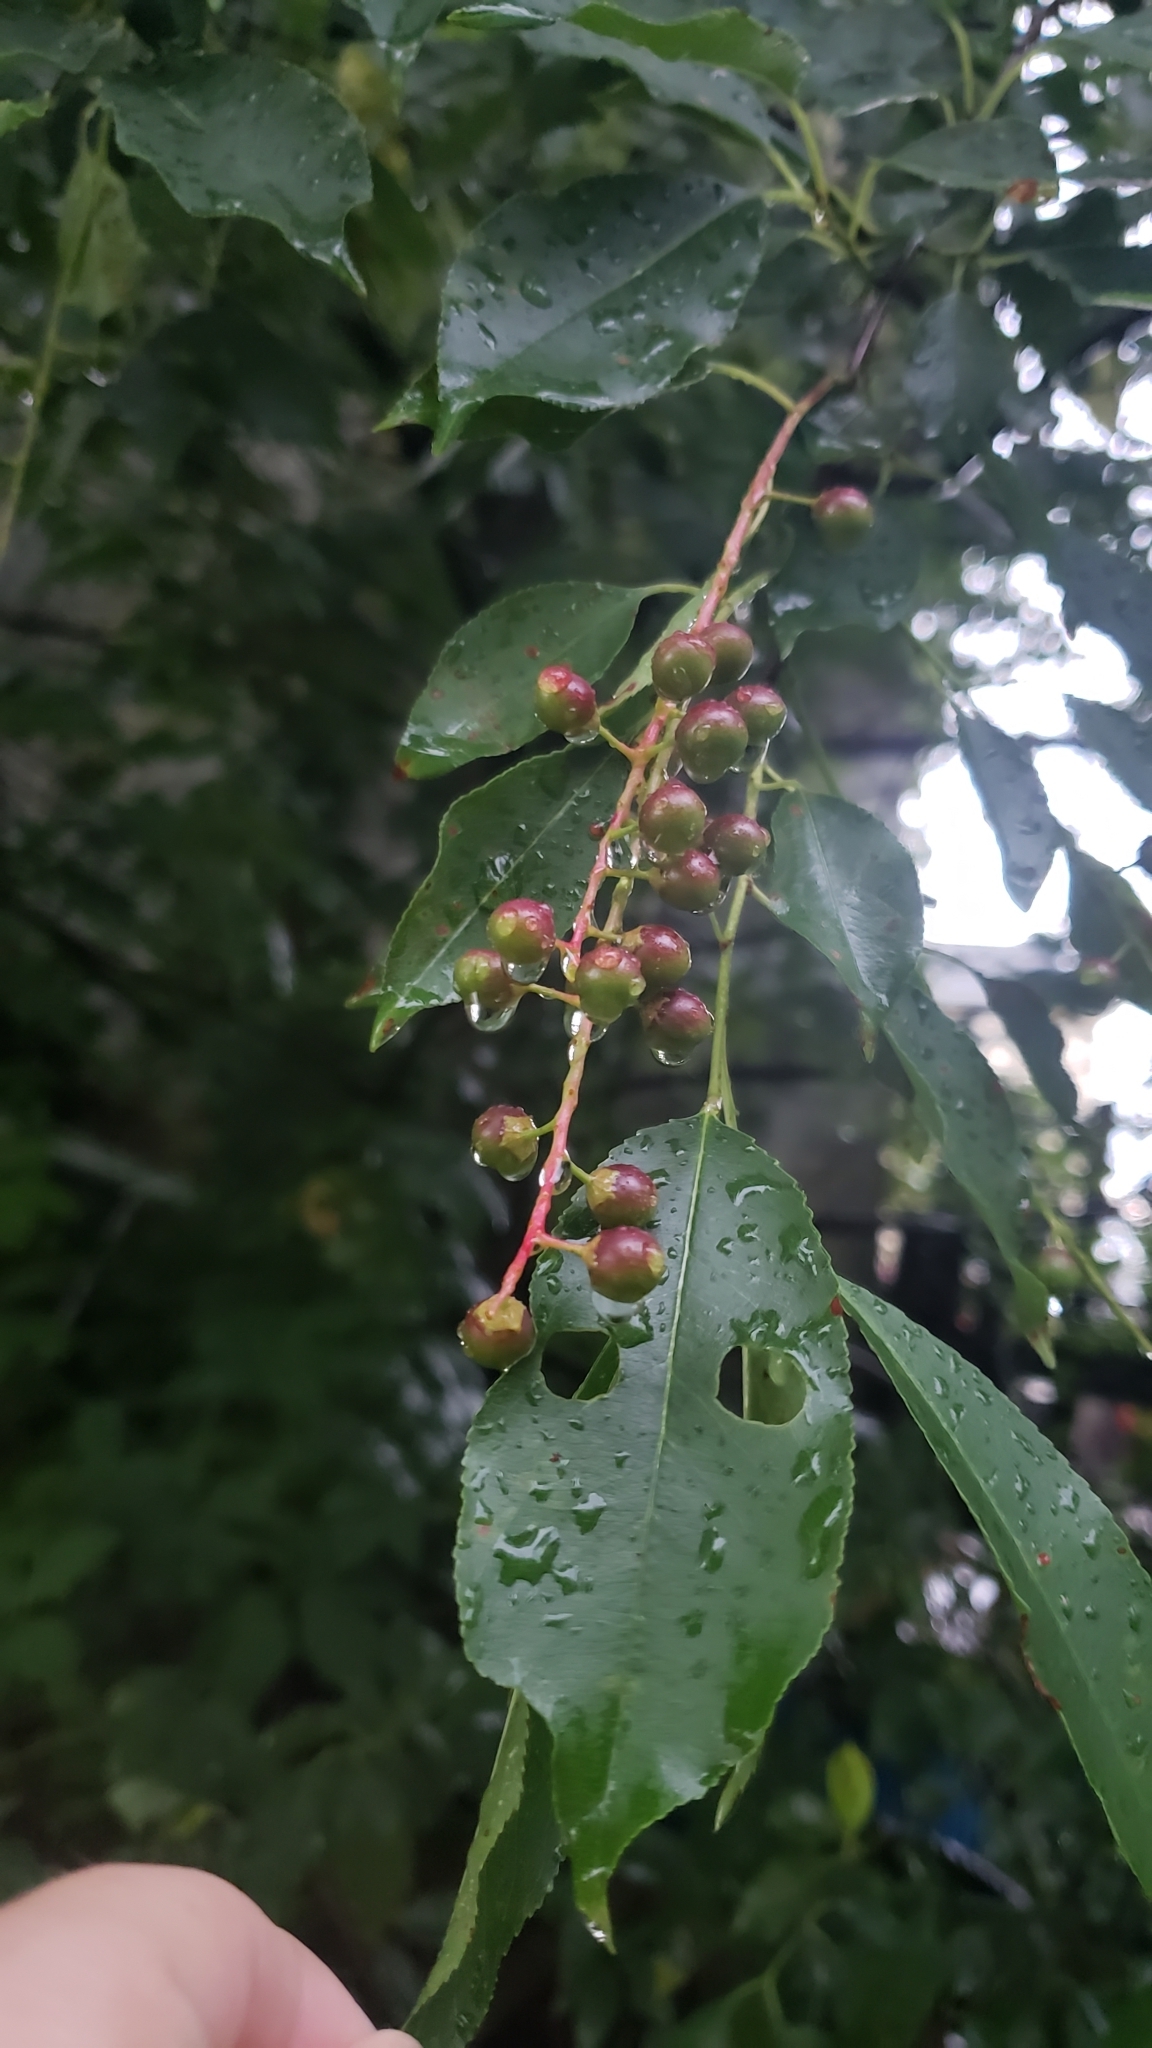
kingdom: Plantae
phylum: Tracheophyta
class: Magnoliopsida
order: Rosales
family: Rosaceae
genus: Prunus
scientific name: Prunus serotina
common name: Black cherry
